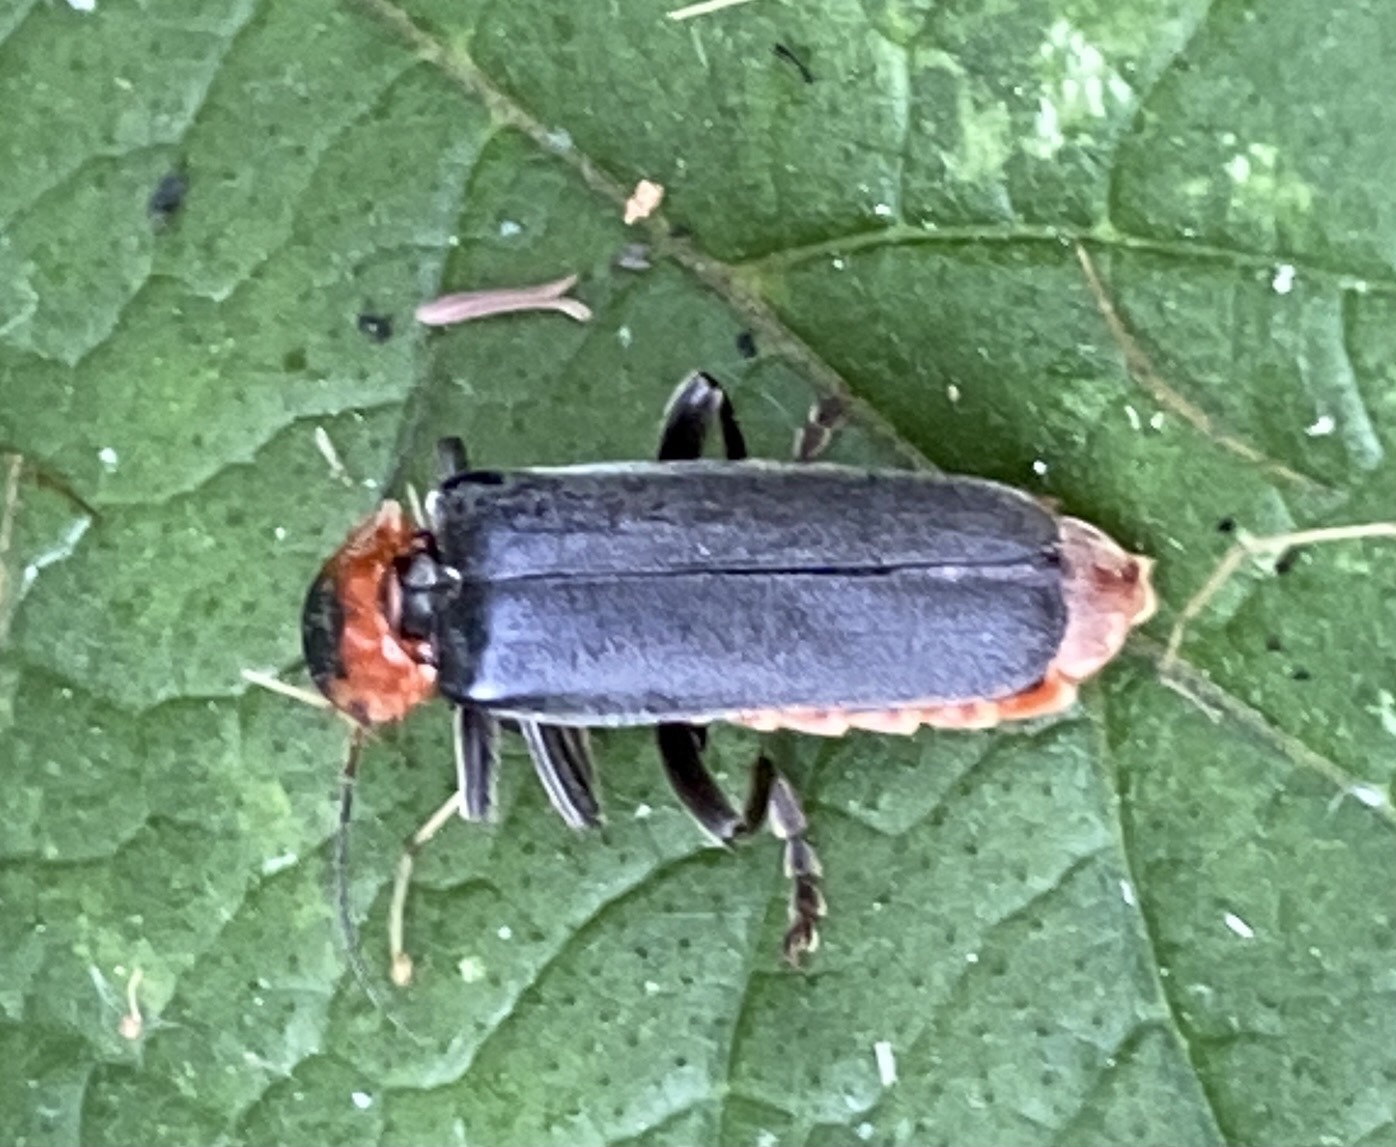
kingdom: Animalia
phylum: Arthropoda
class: Insecta
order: Coleoptera
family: Cantharidae
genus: Cantharis
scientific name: Cantharis fusca
